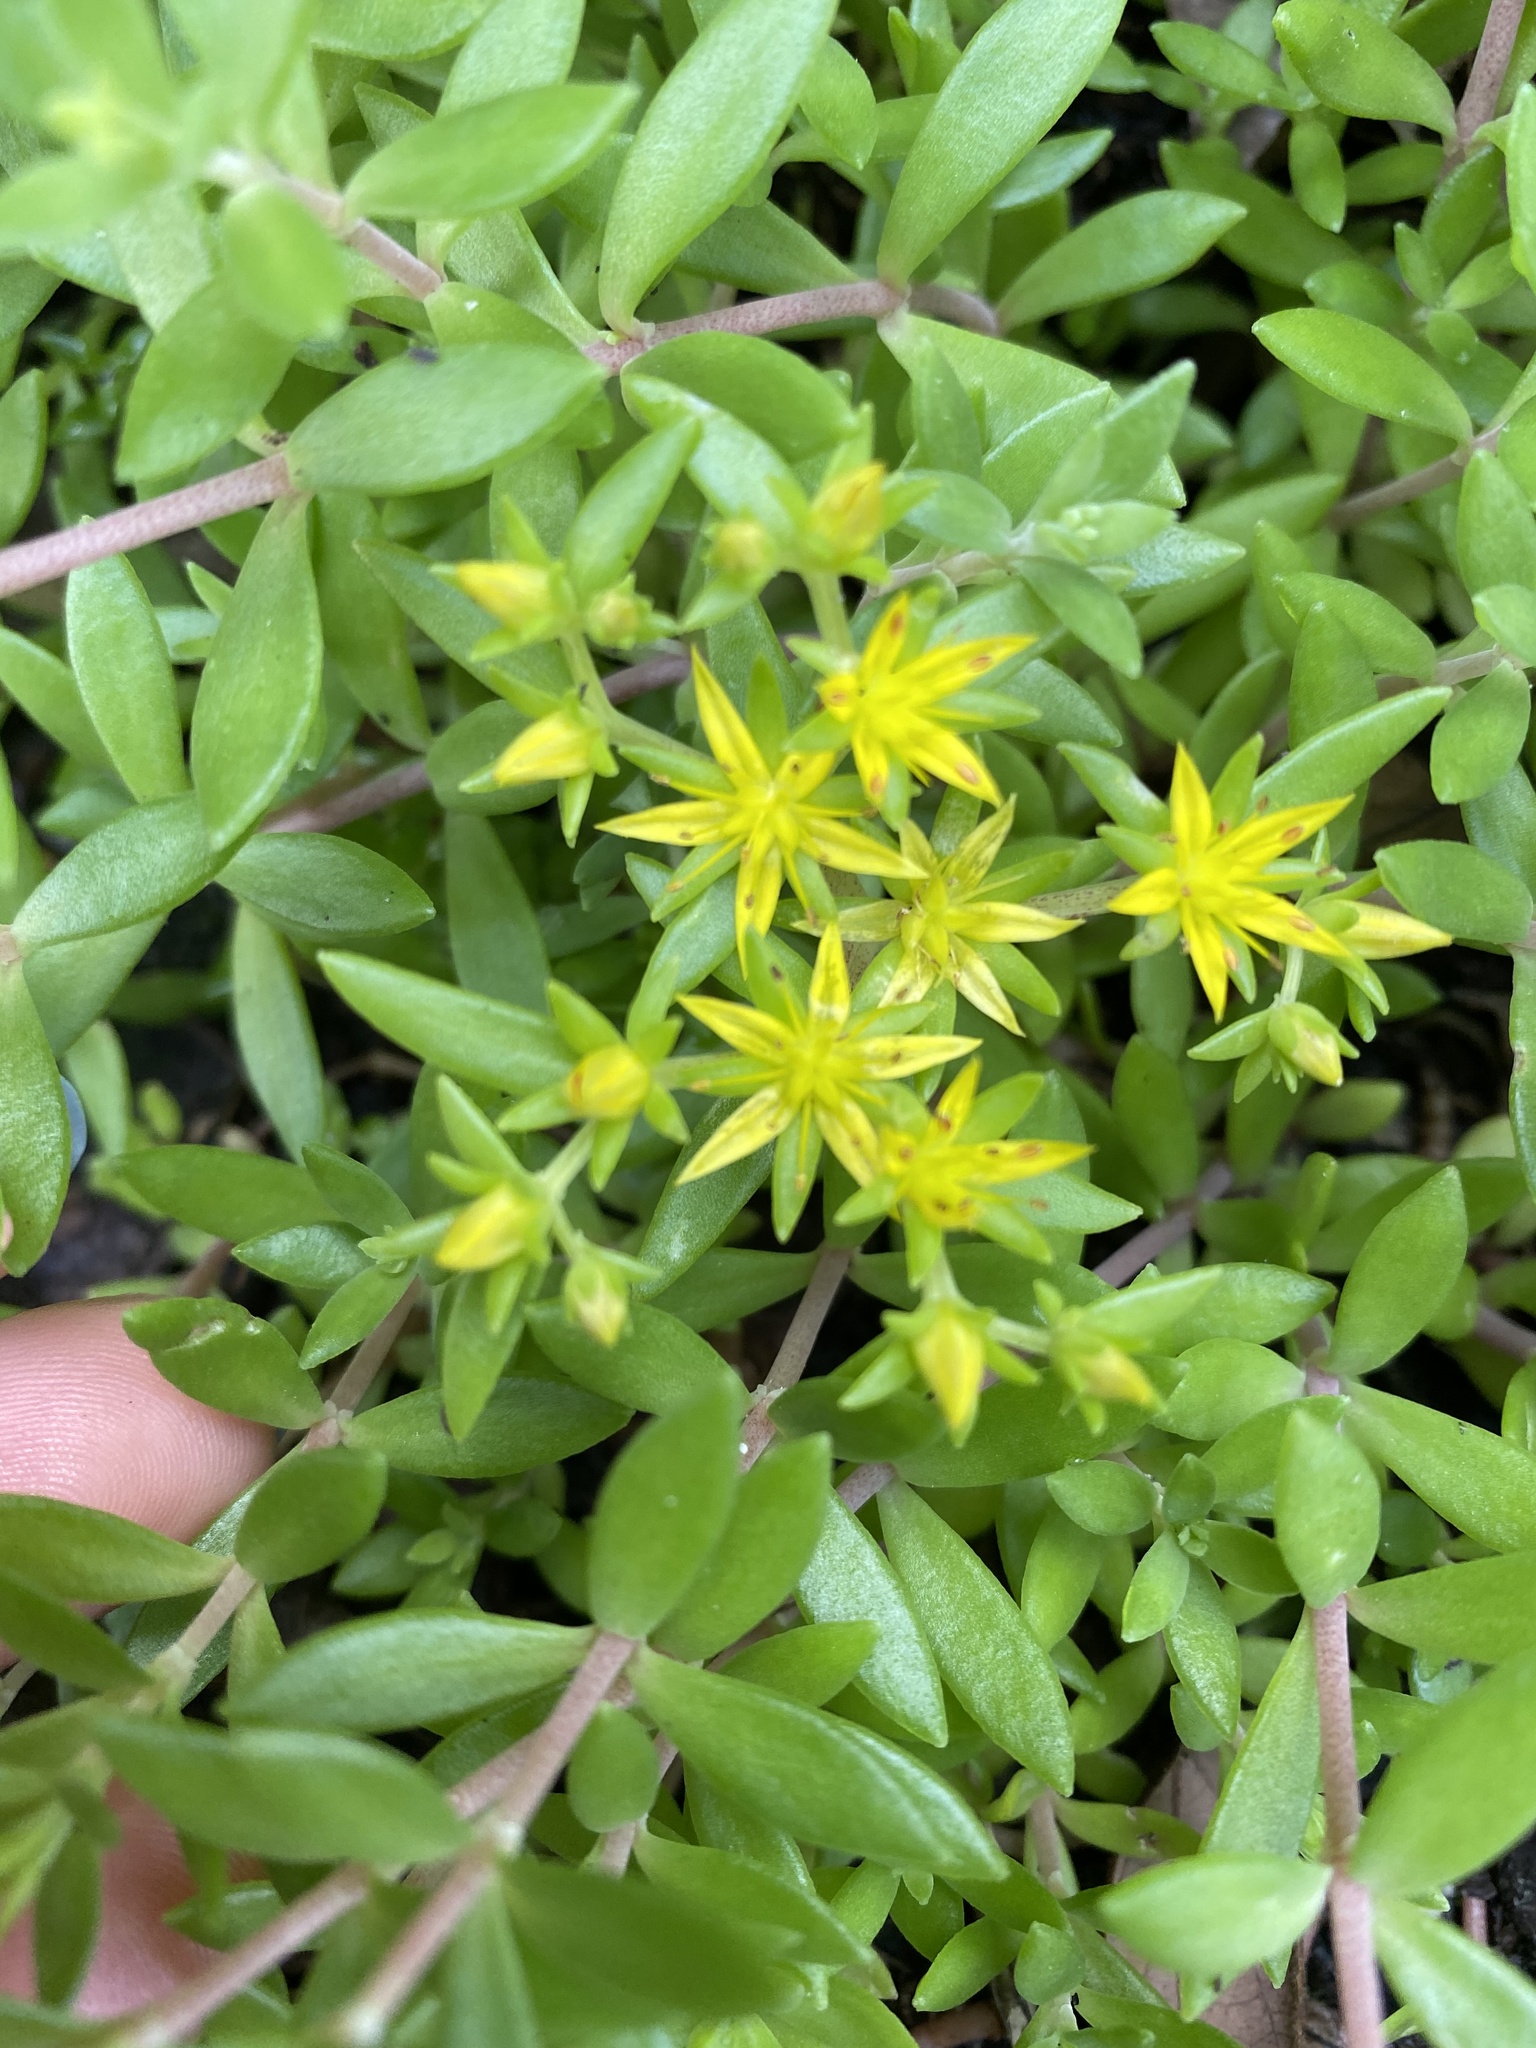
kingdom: Plantae
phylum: Tracheophyta
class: Magnoliopsida
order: Saxifragales
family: Crassulaceae
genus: Sedum
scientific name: Sedum sarmentosum
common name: Stringy stonecrop
